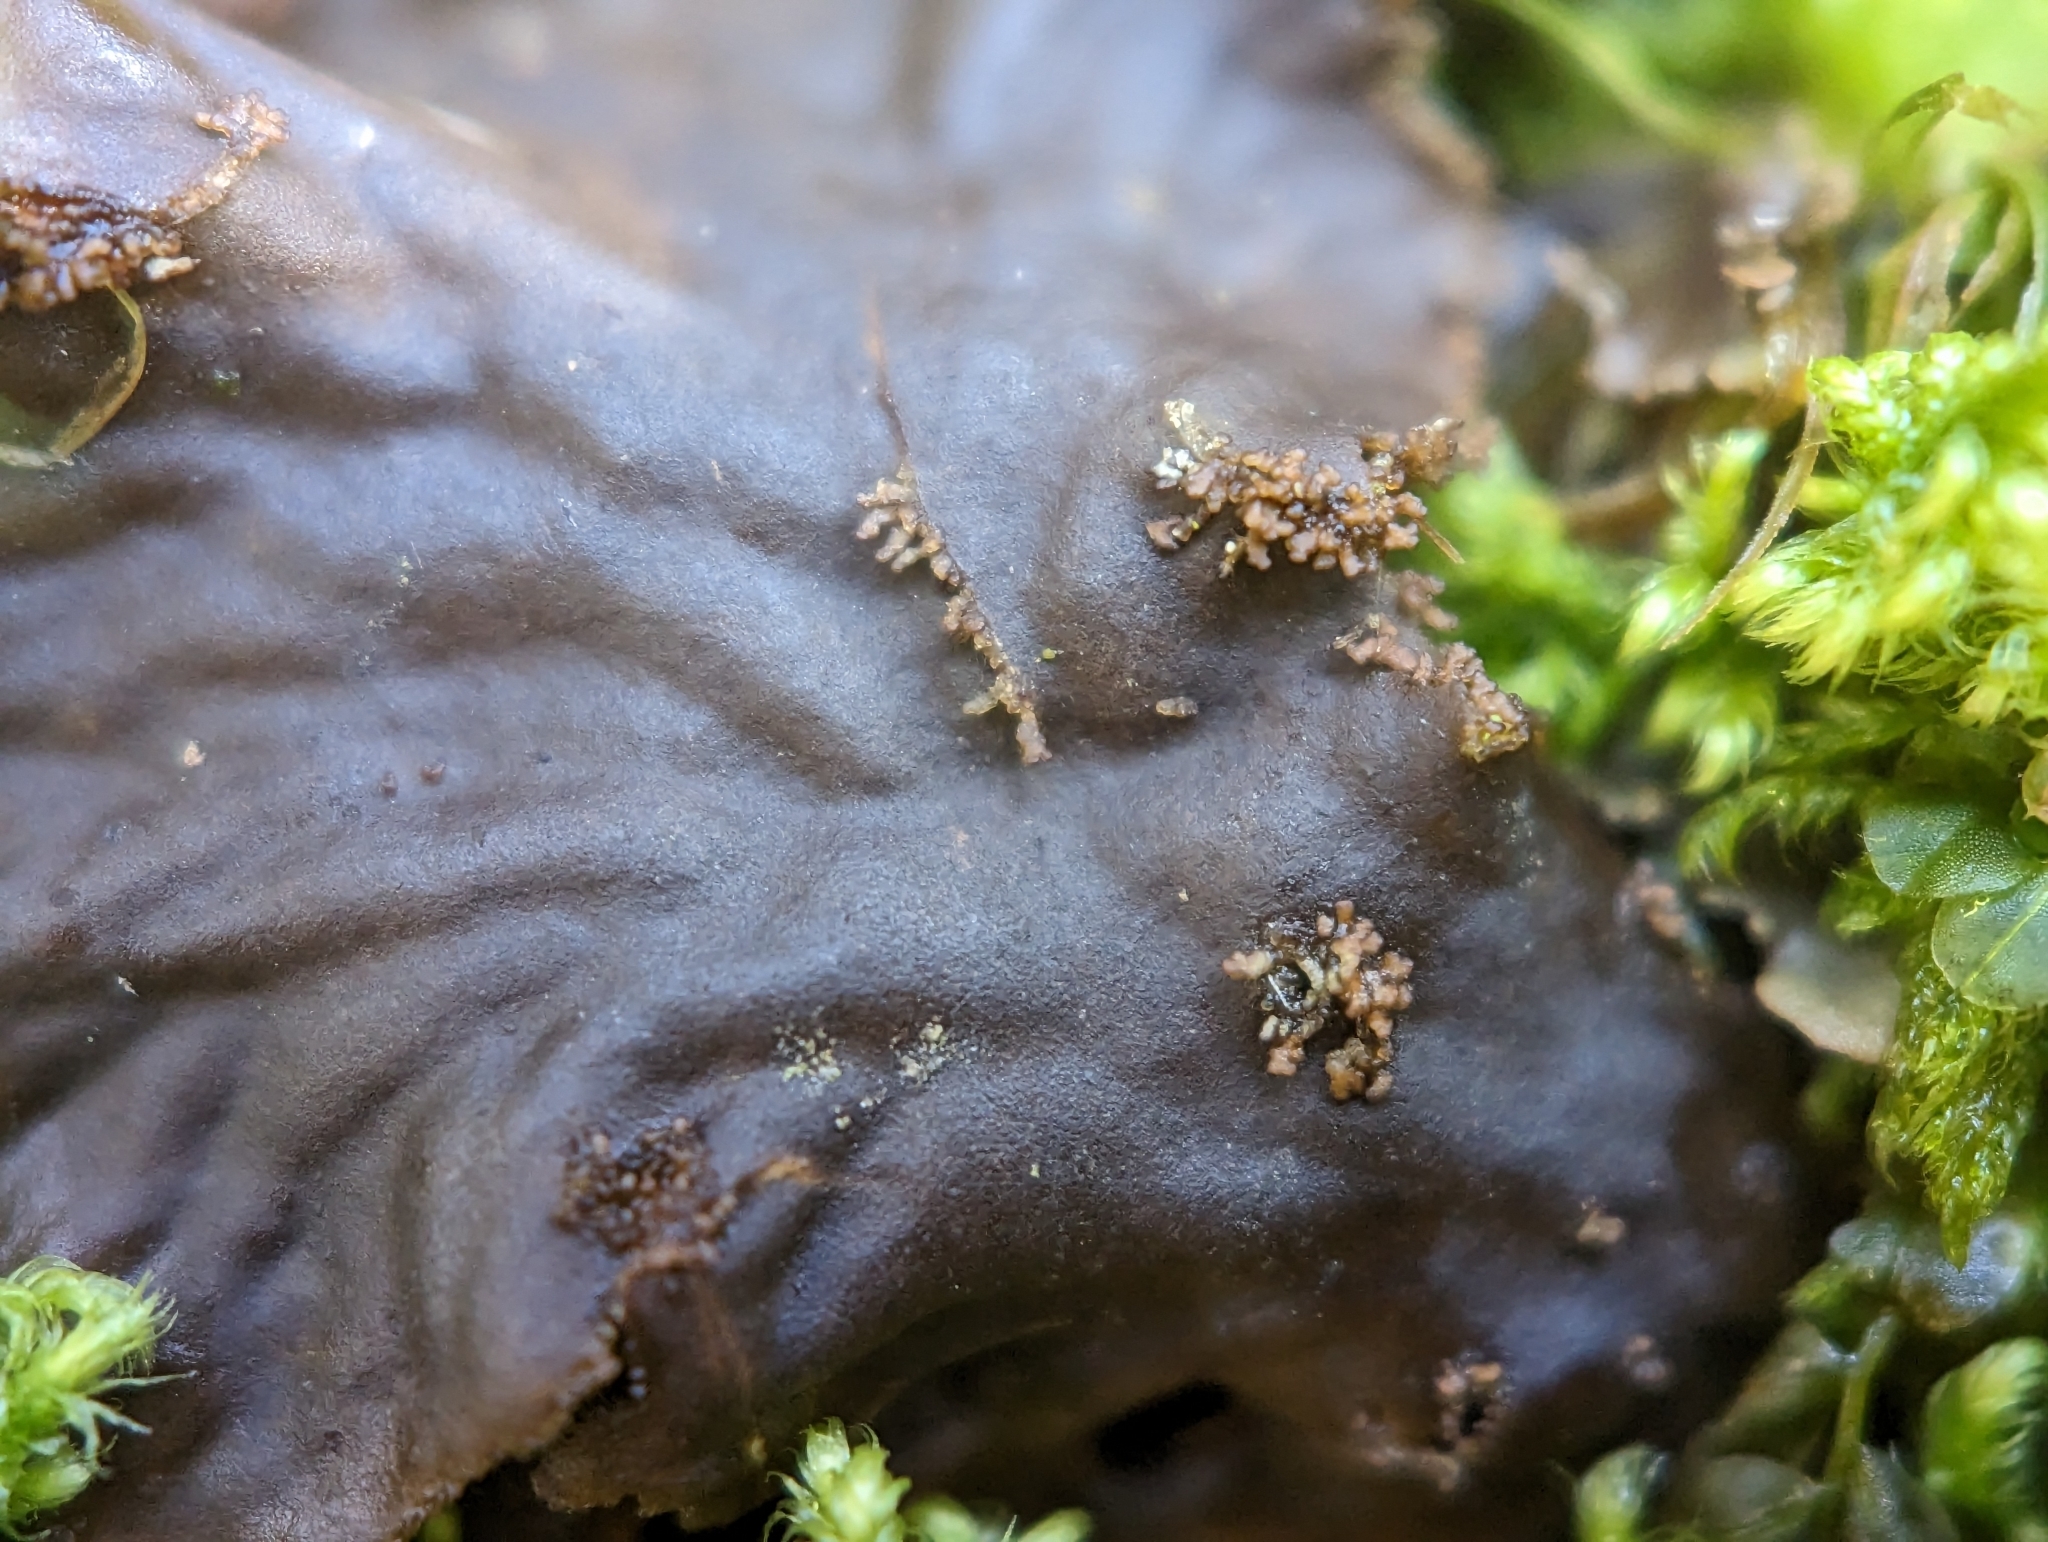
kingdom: Fungi
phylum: Ascomycota
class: Lecanoromycetes
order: Peltigerales
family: Peltigeraceae
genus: Peltigera
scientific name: Peltigera praetextata
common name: Scaly dog-lichen
